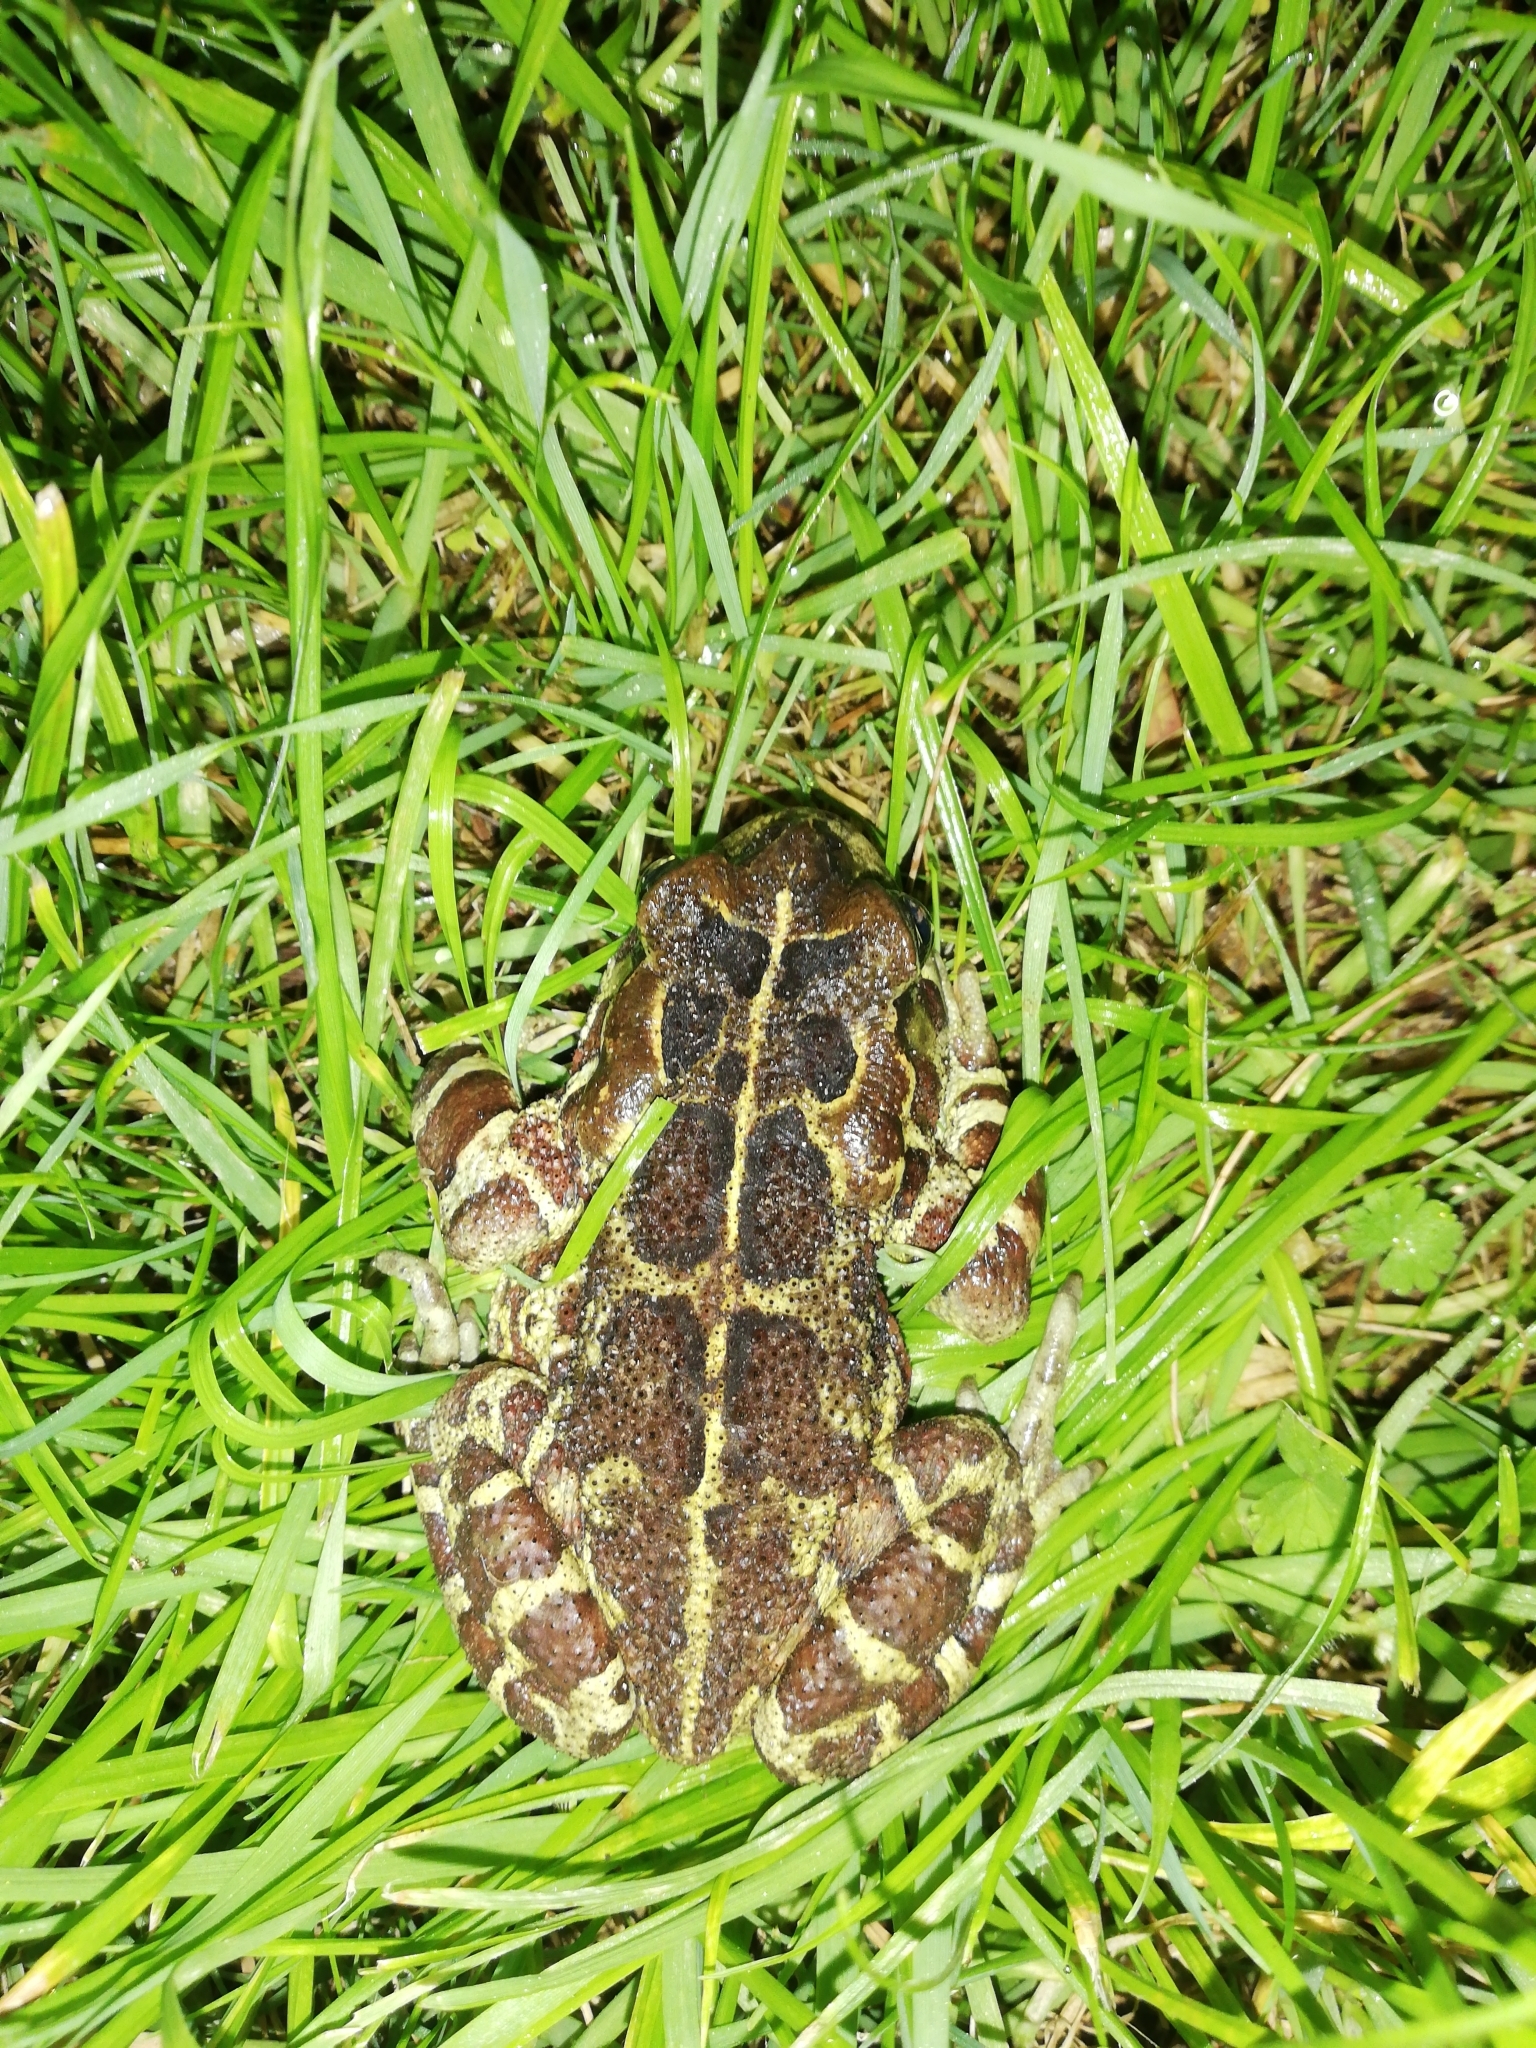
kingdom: Animalia
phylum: Chordata
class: Amphibia
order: Anura
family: Bufonidae
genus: Sclerophrys
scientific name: Sclerophrys pantherina
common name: Panther toad
